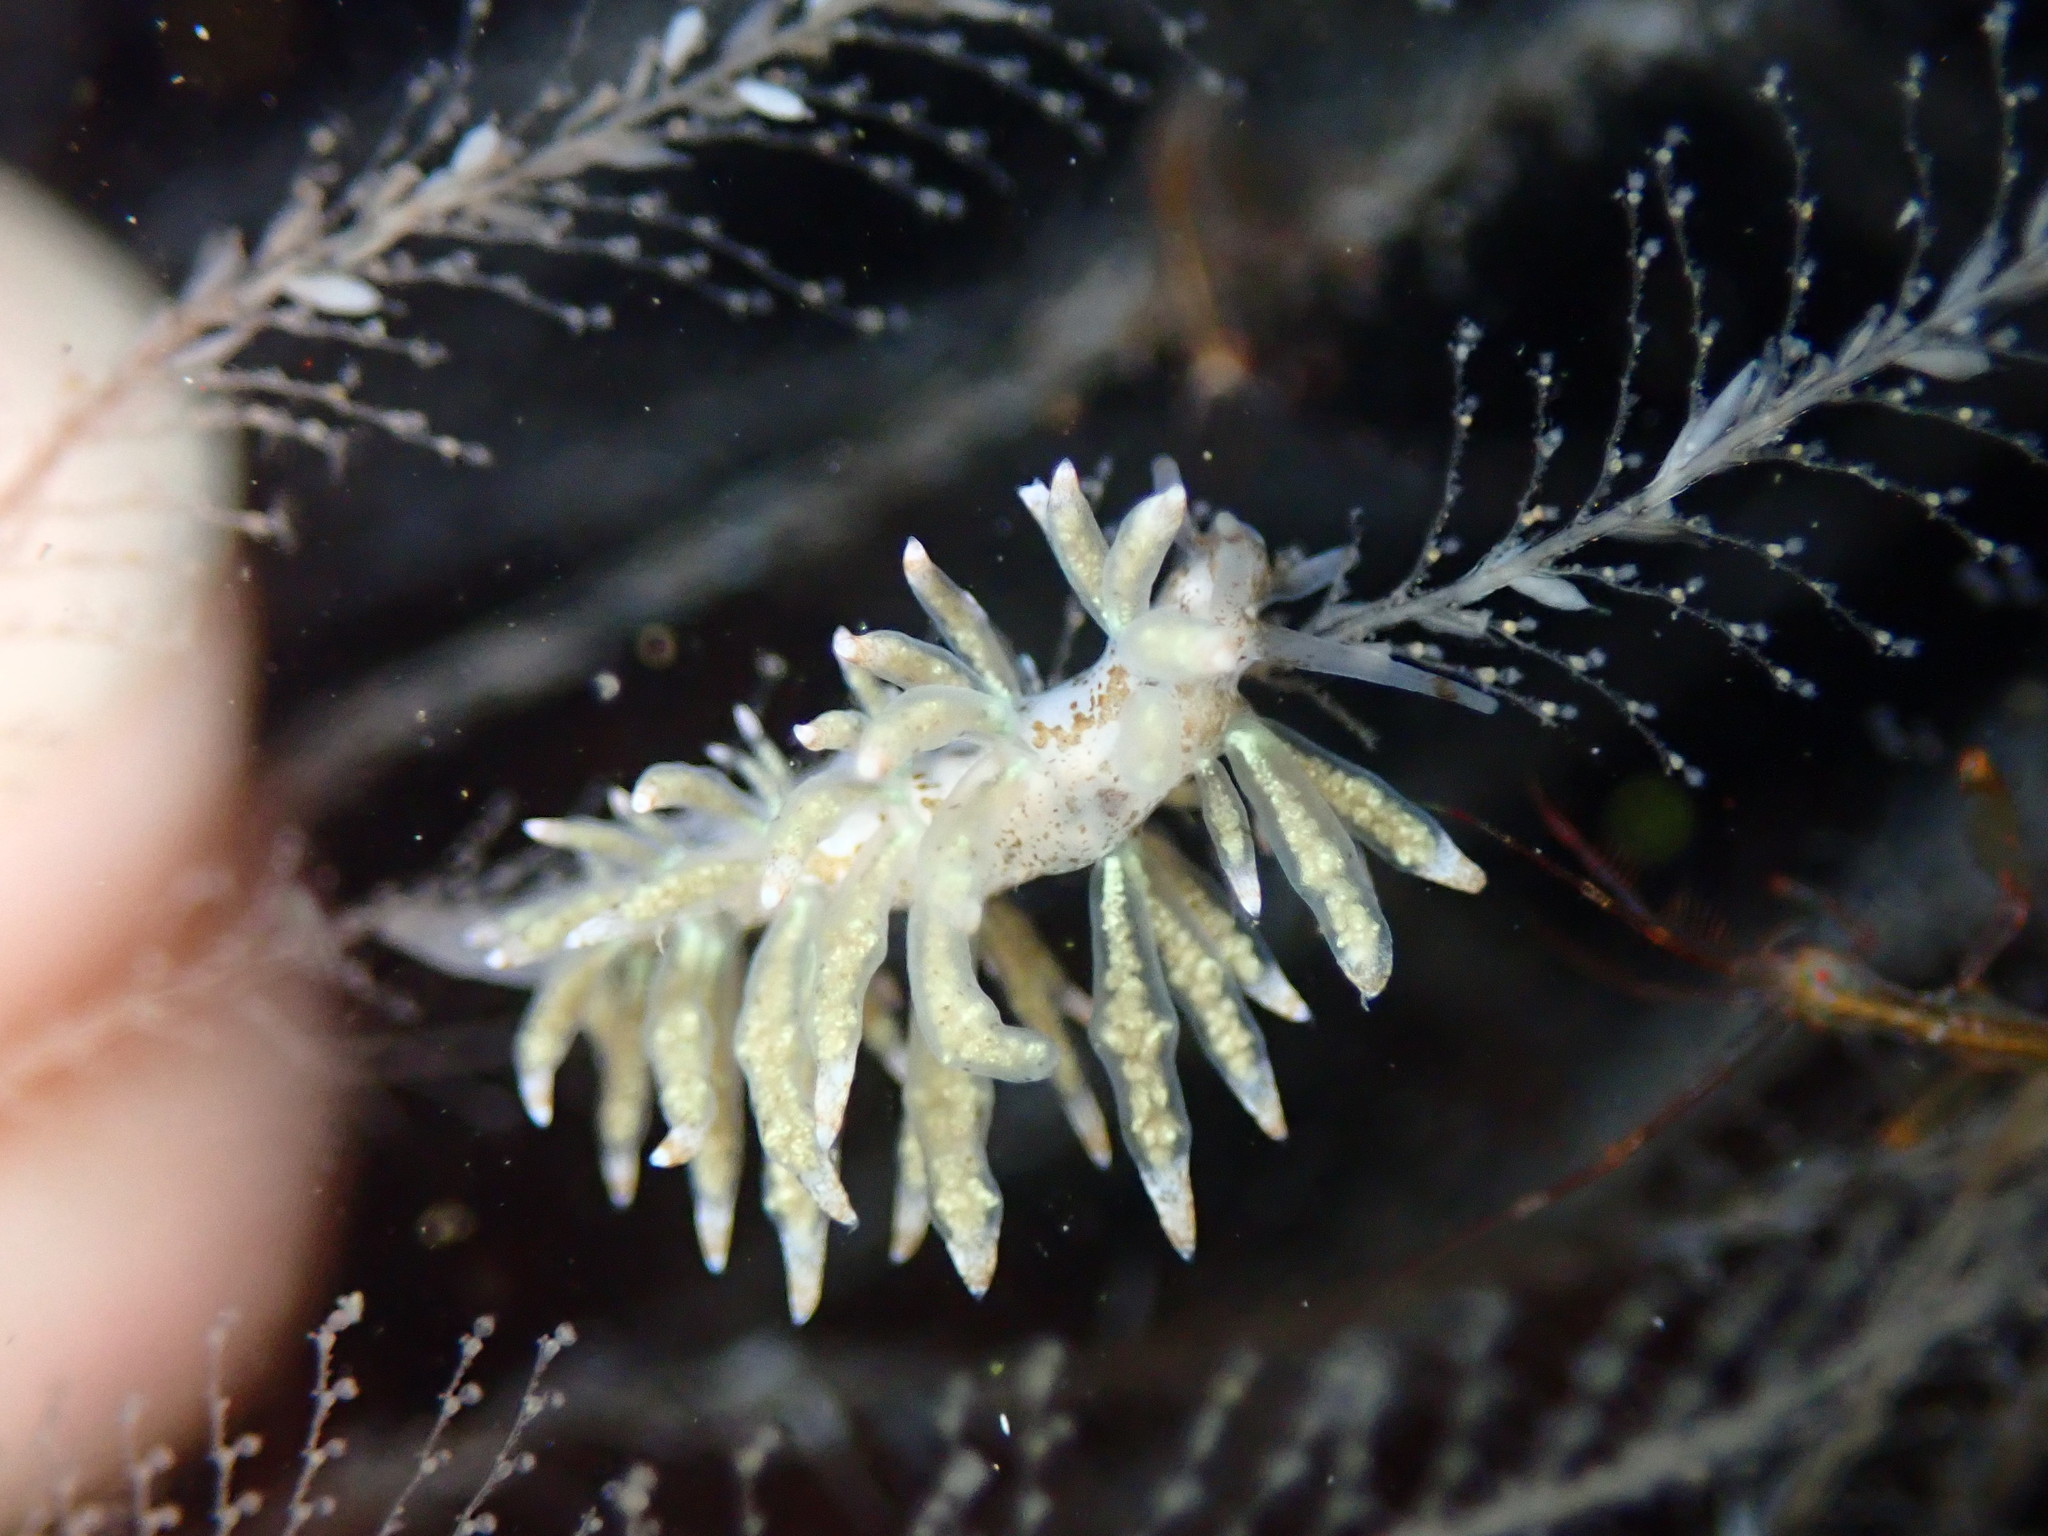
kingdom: Animalia
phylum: Mollusca
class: Gastropoda
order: Nudibranchia
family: Eubranchidae
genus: Eubranchus
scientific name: Eubranchus rustyus
